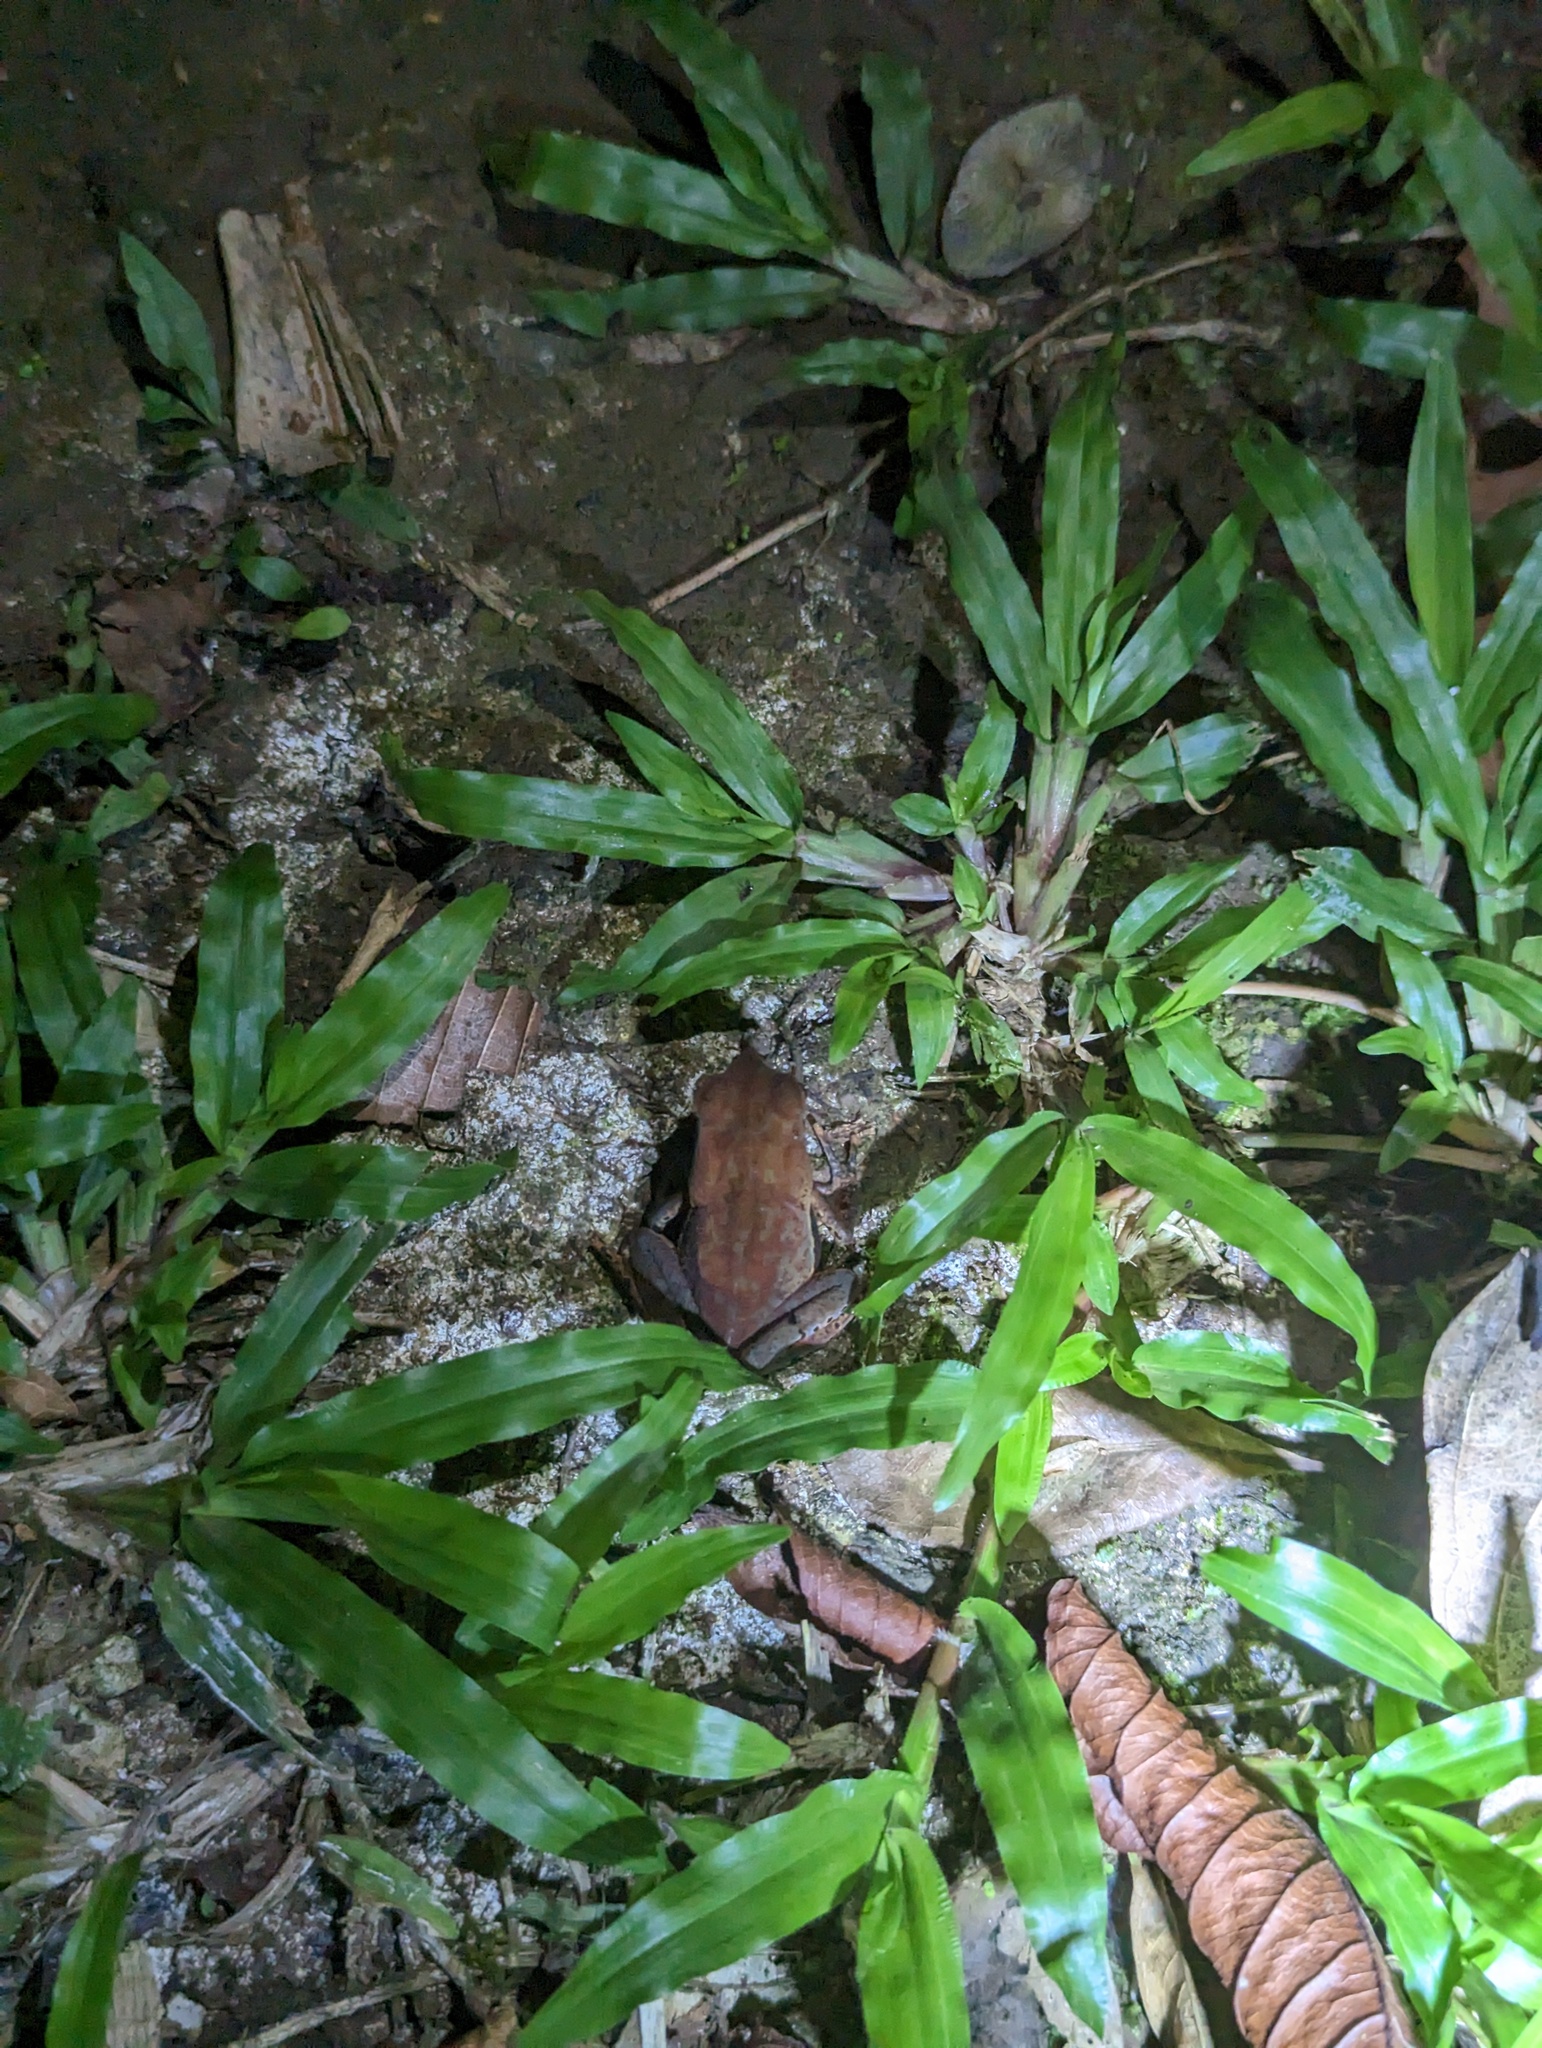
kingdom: Animalia
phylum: Chordata
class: Amphibia
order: Anura
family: Bufonidae
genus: Rhaebo
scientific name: Rhaebo haematiticus
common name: Truando toad
